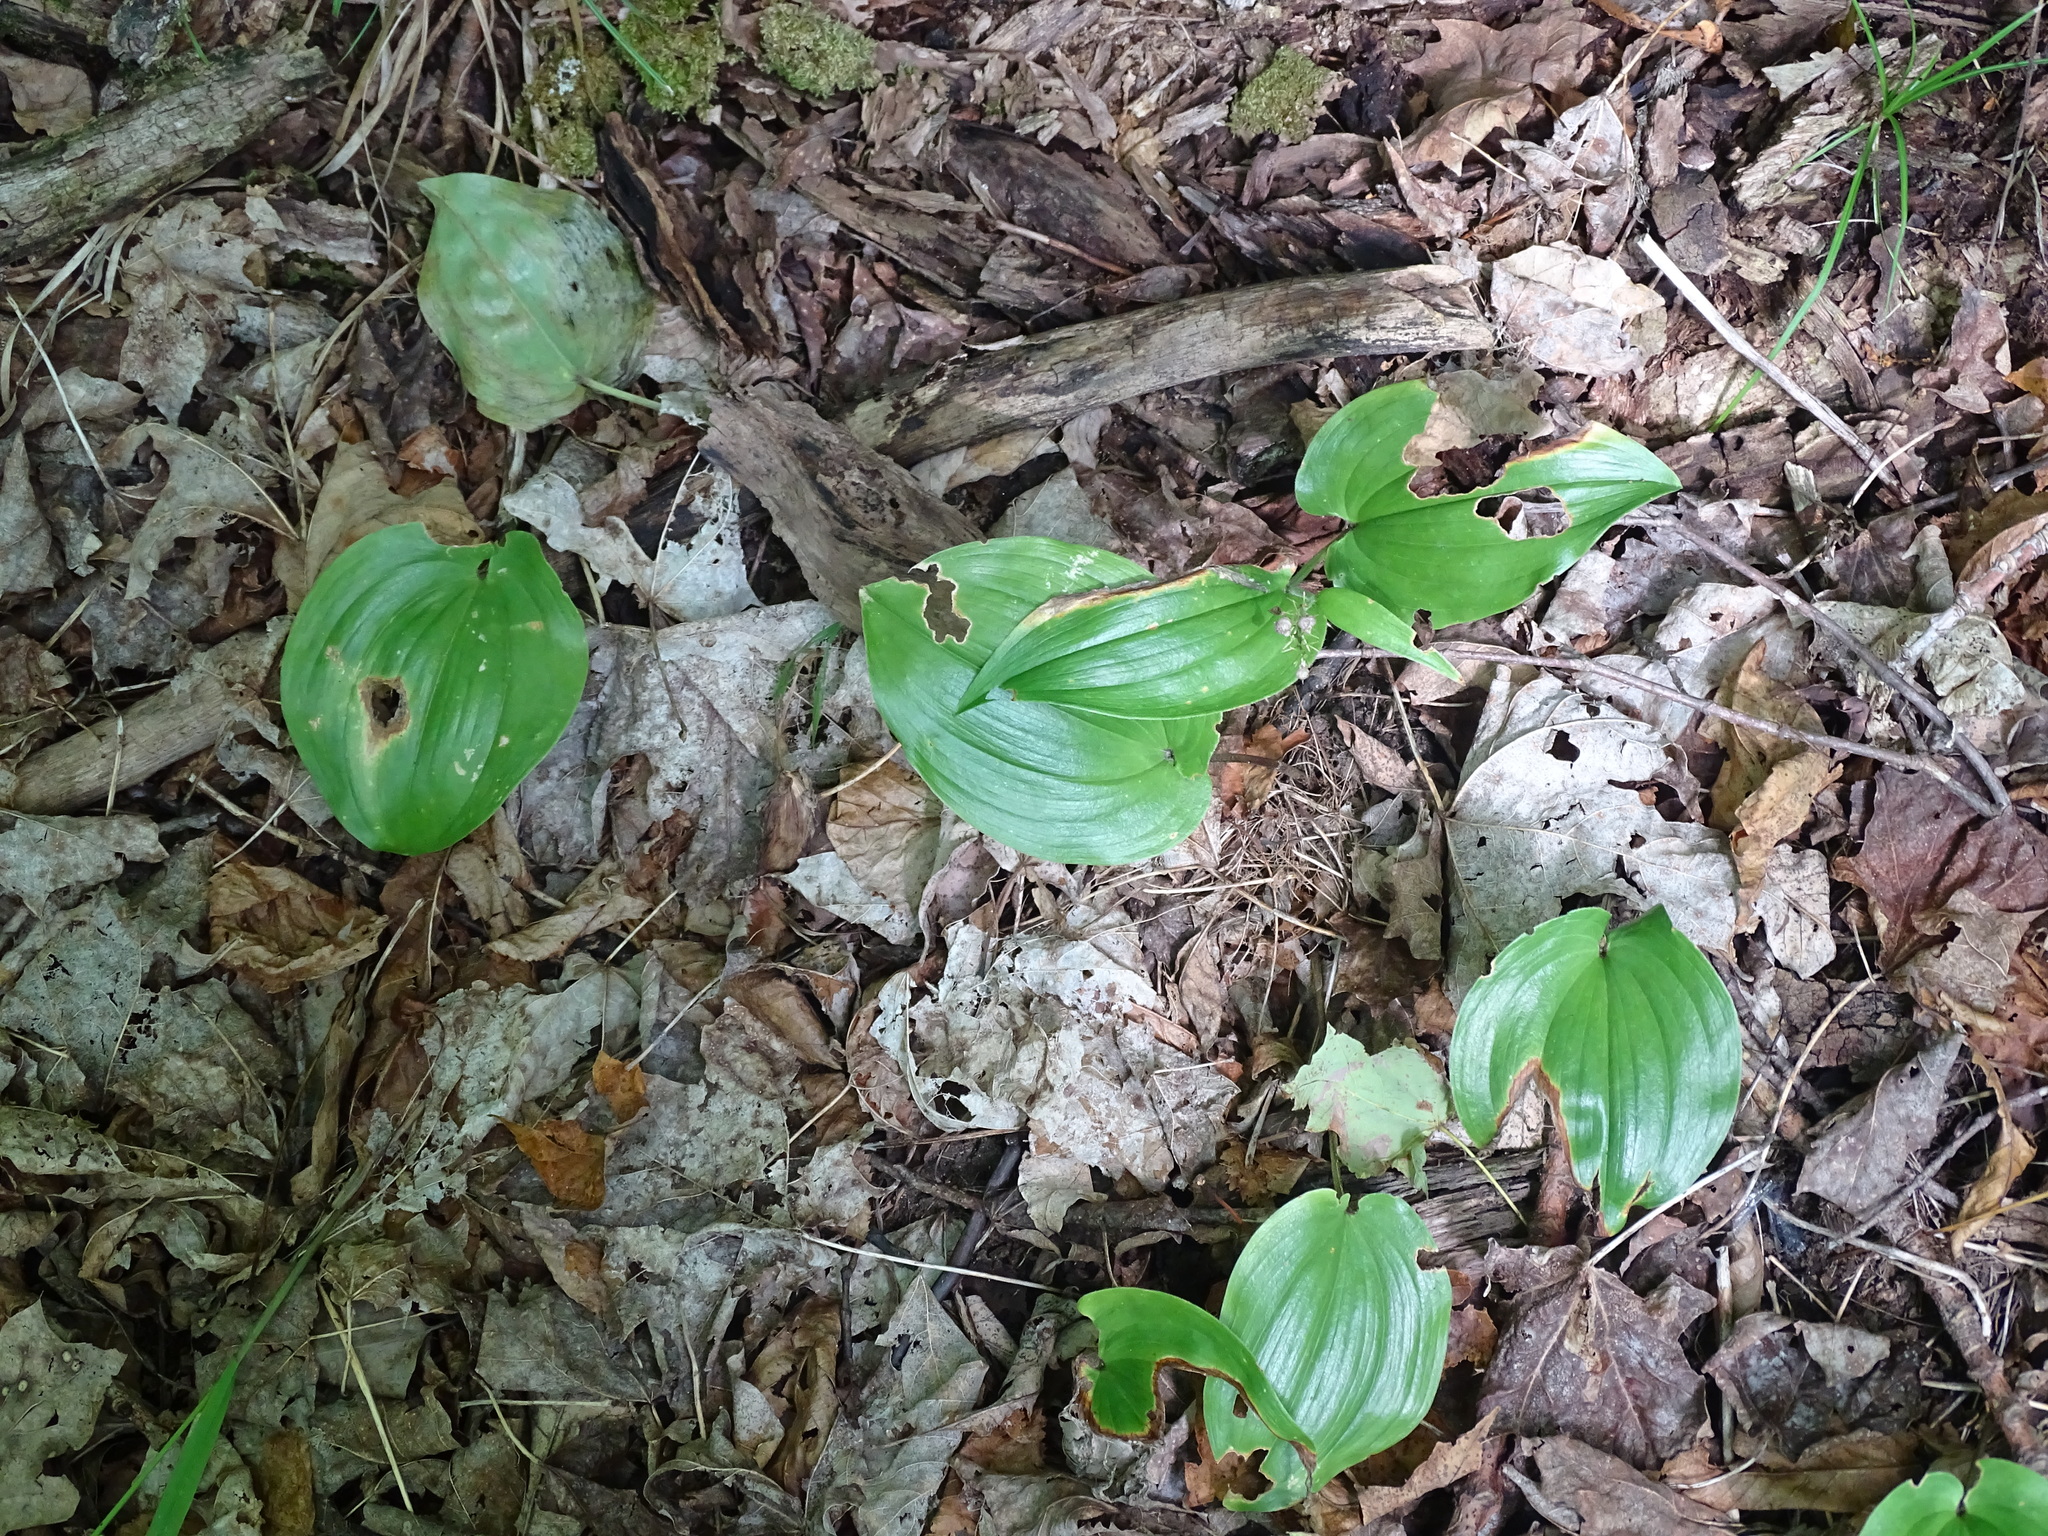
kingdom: Plantae
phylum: Tracheophyta
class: Liliopsida
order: Asparagales
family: Asparagaceae
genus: Maianthemum
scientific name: Maianthemum canadense
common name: False lily-of-the-valley
